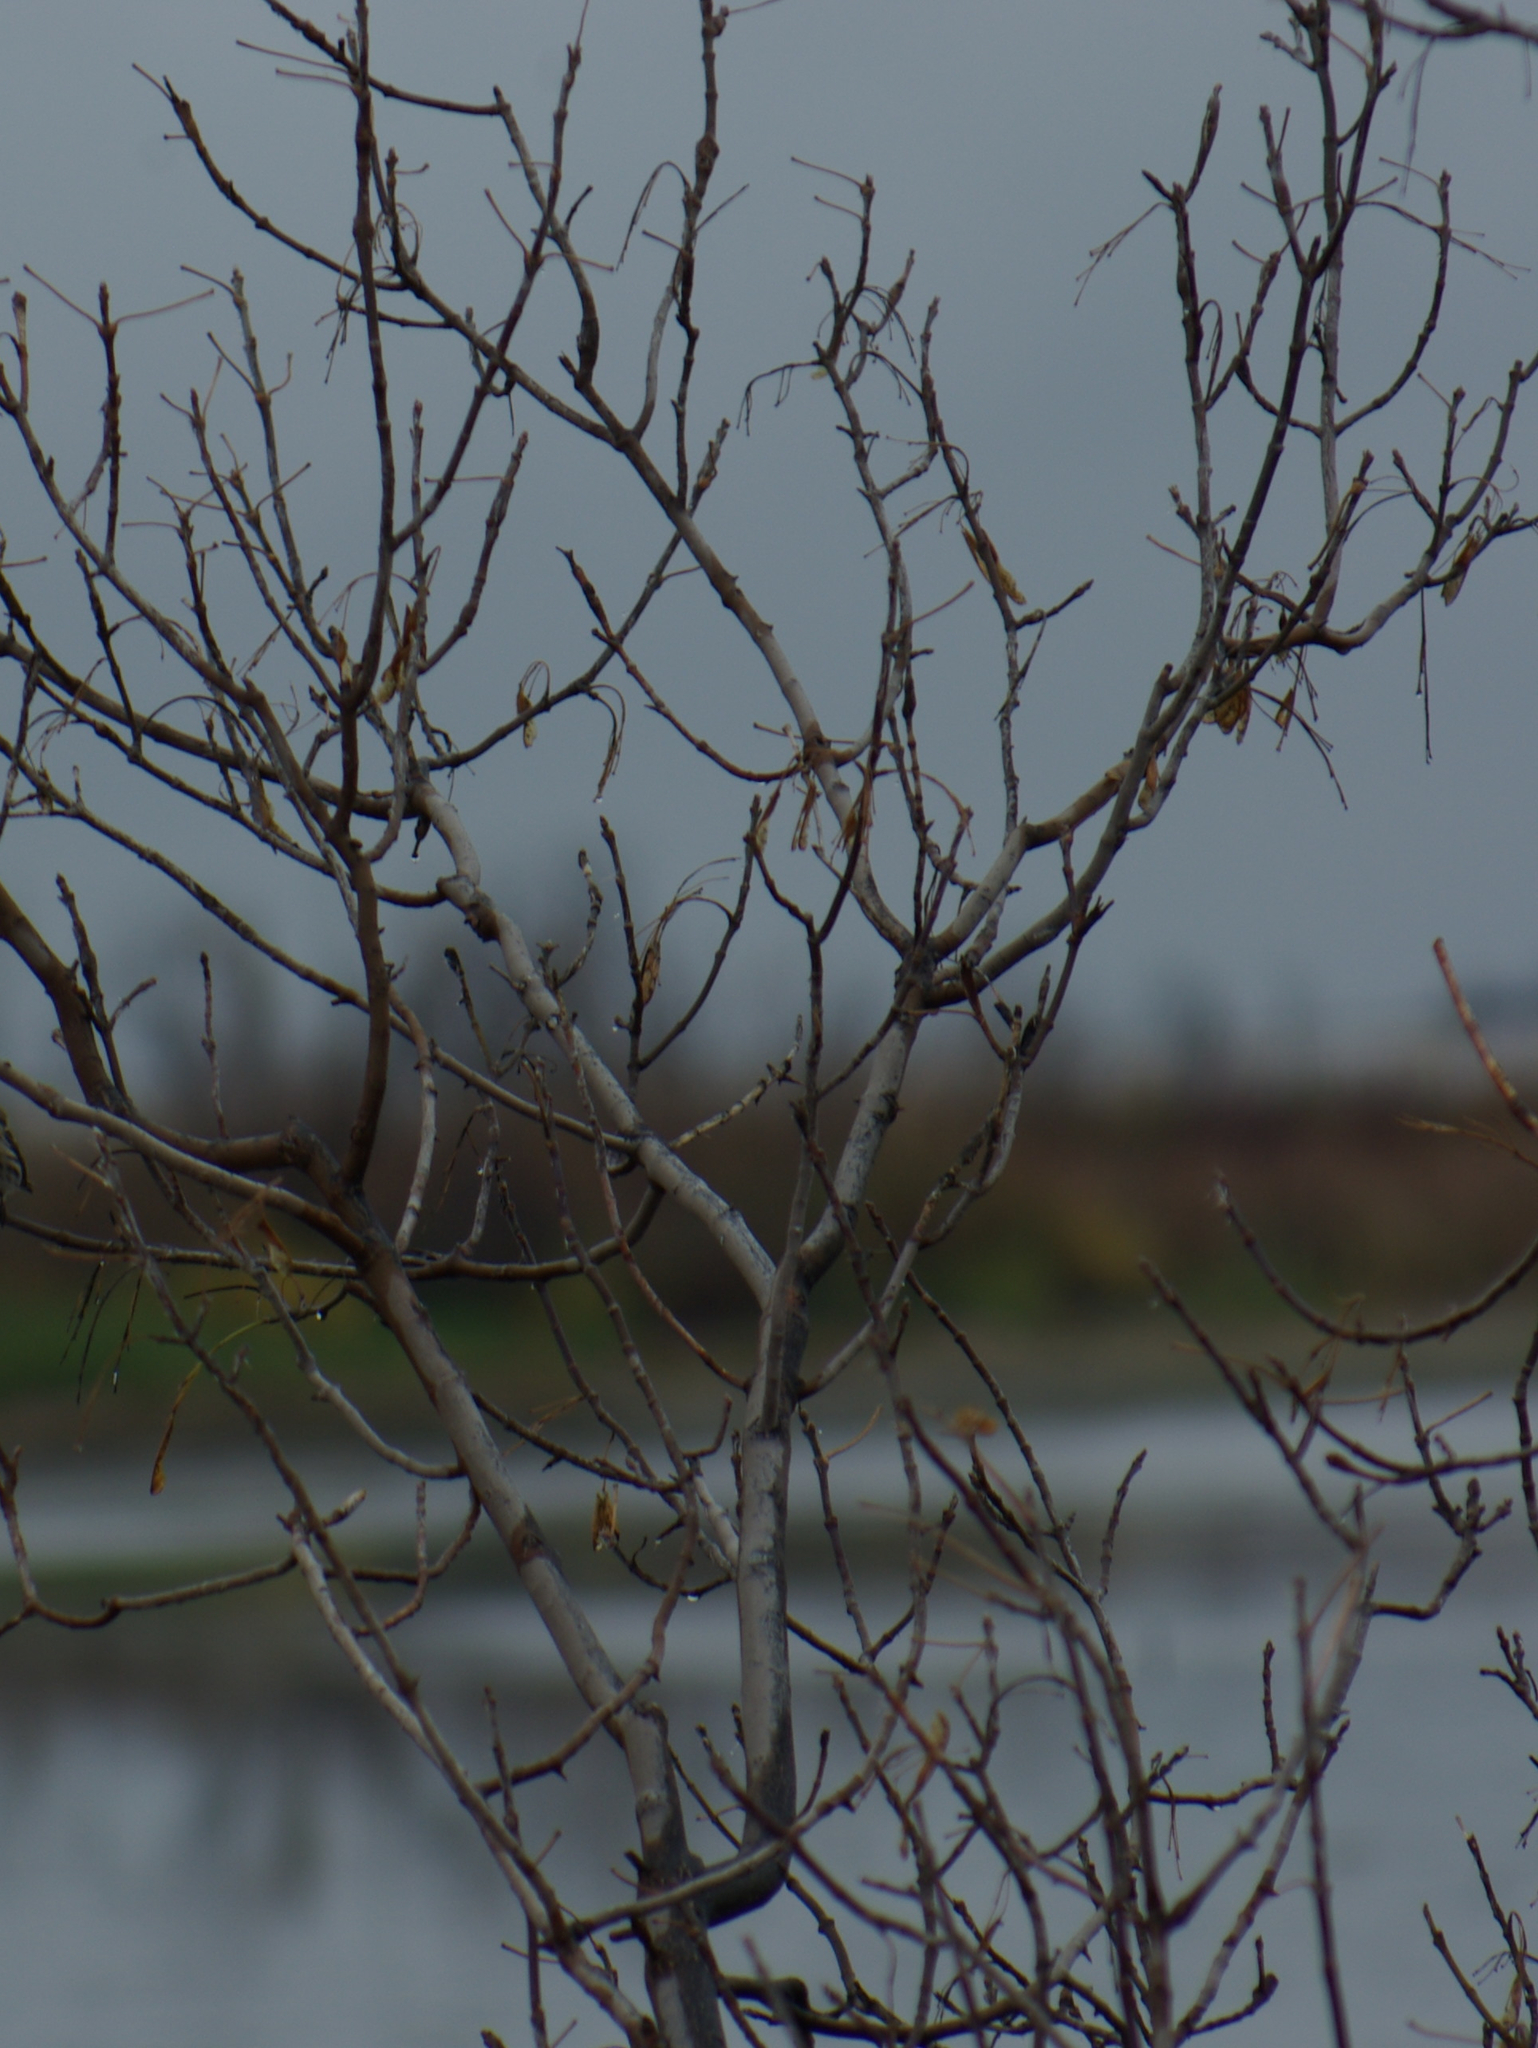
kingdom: Plantae
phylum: Tracheophyta
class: Magnoliopsida
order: Sapindales
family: Sapindaceae
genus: Acer
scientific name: Acer negundo
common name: Ashleaf maple
